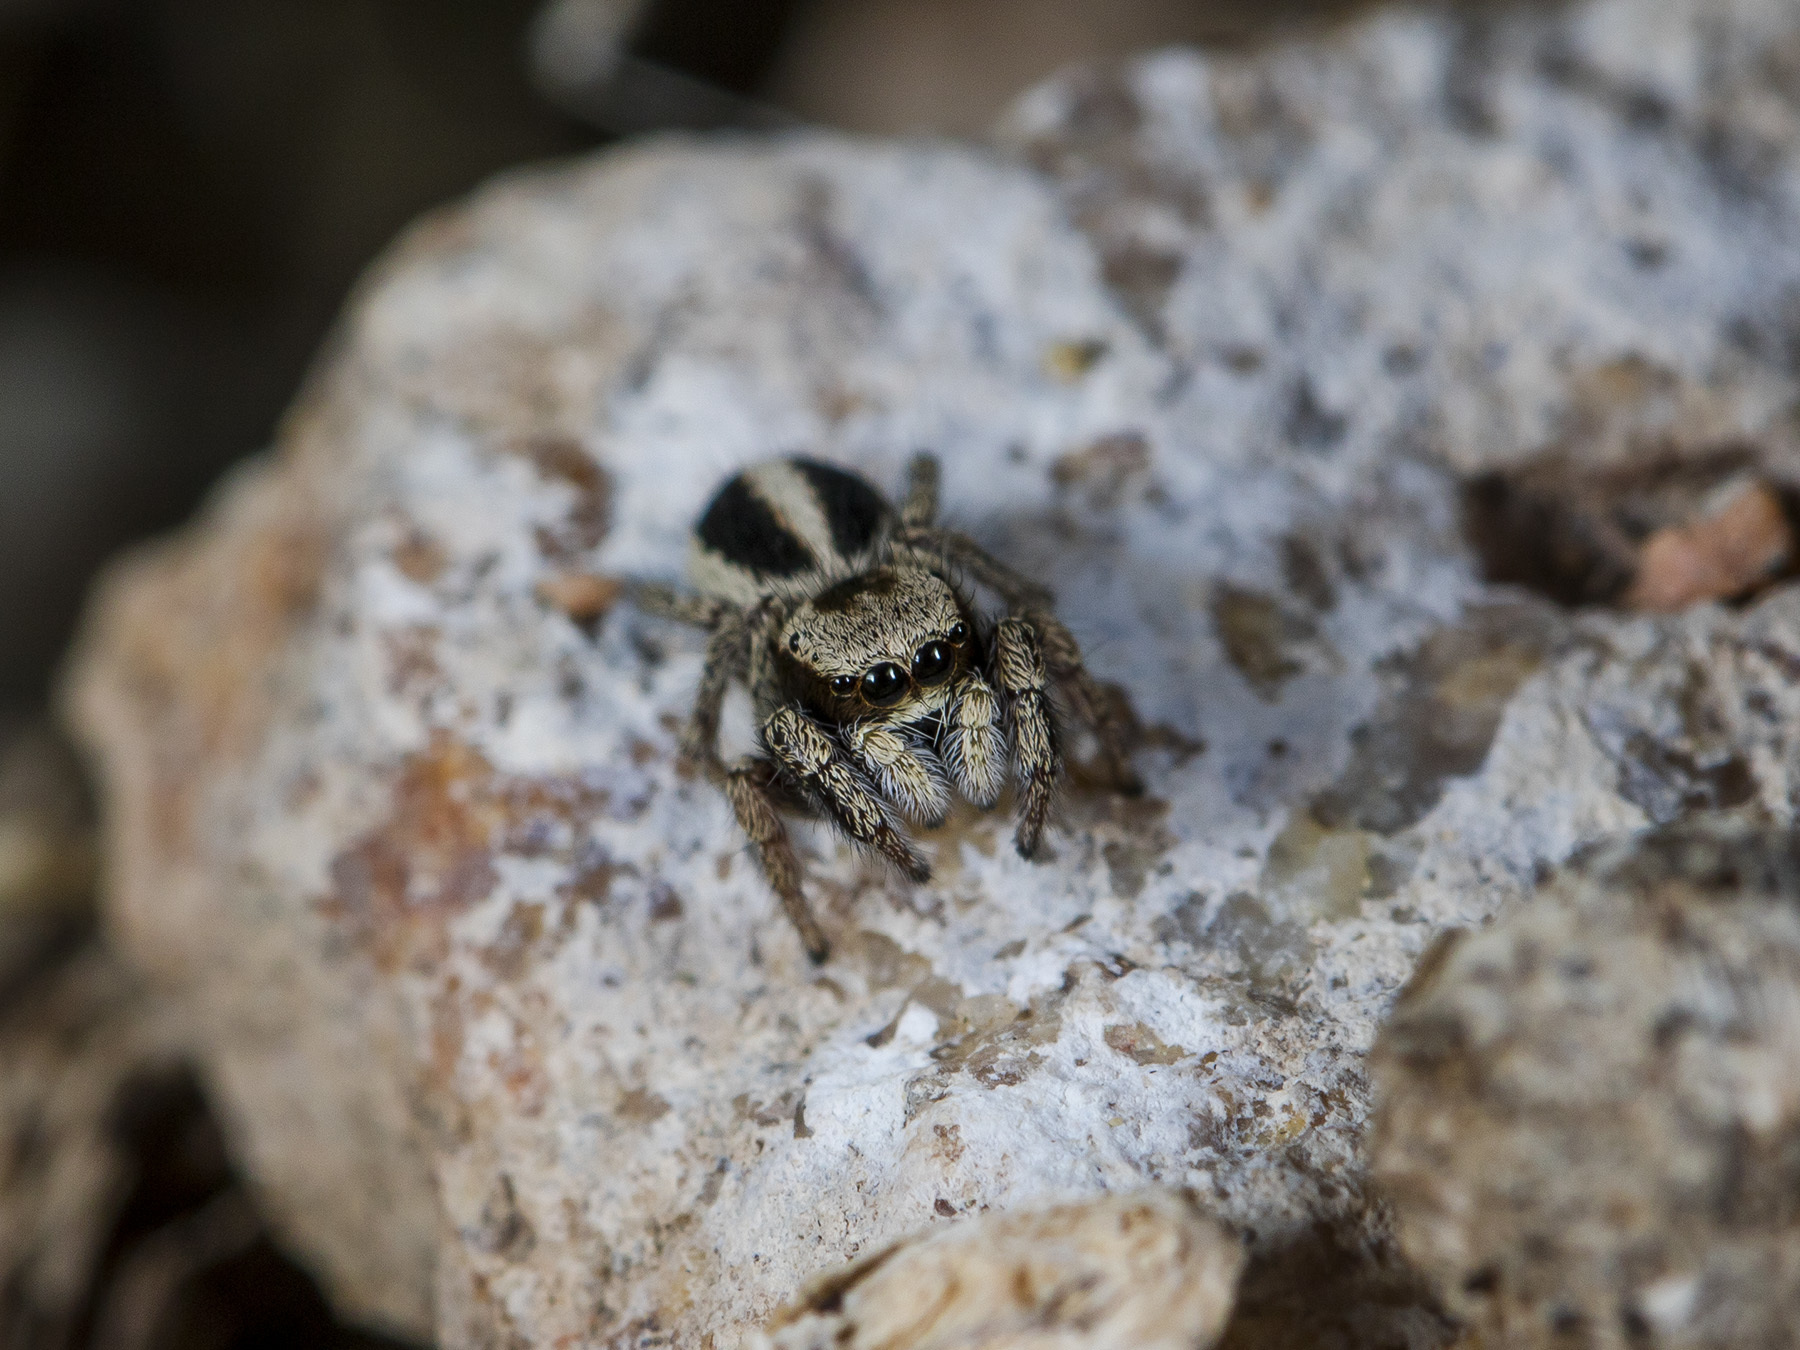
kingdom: Animalia
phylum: Arthropoda
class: Arachnida
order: Araneae
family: Salticidae
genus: Pellenes
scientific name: Pellenes epularis
